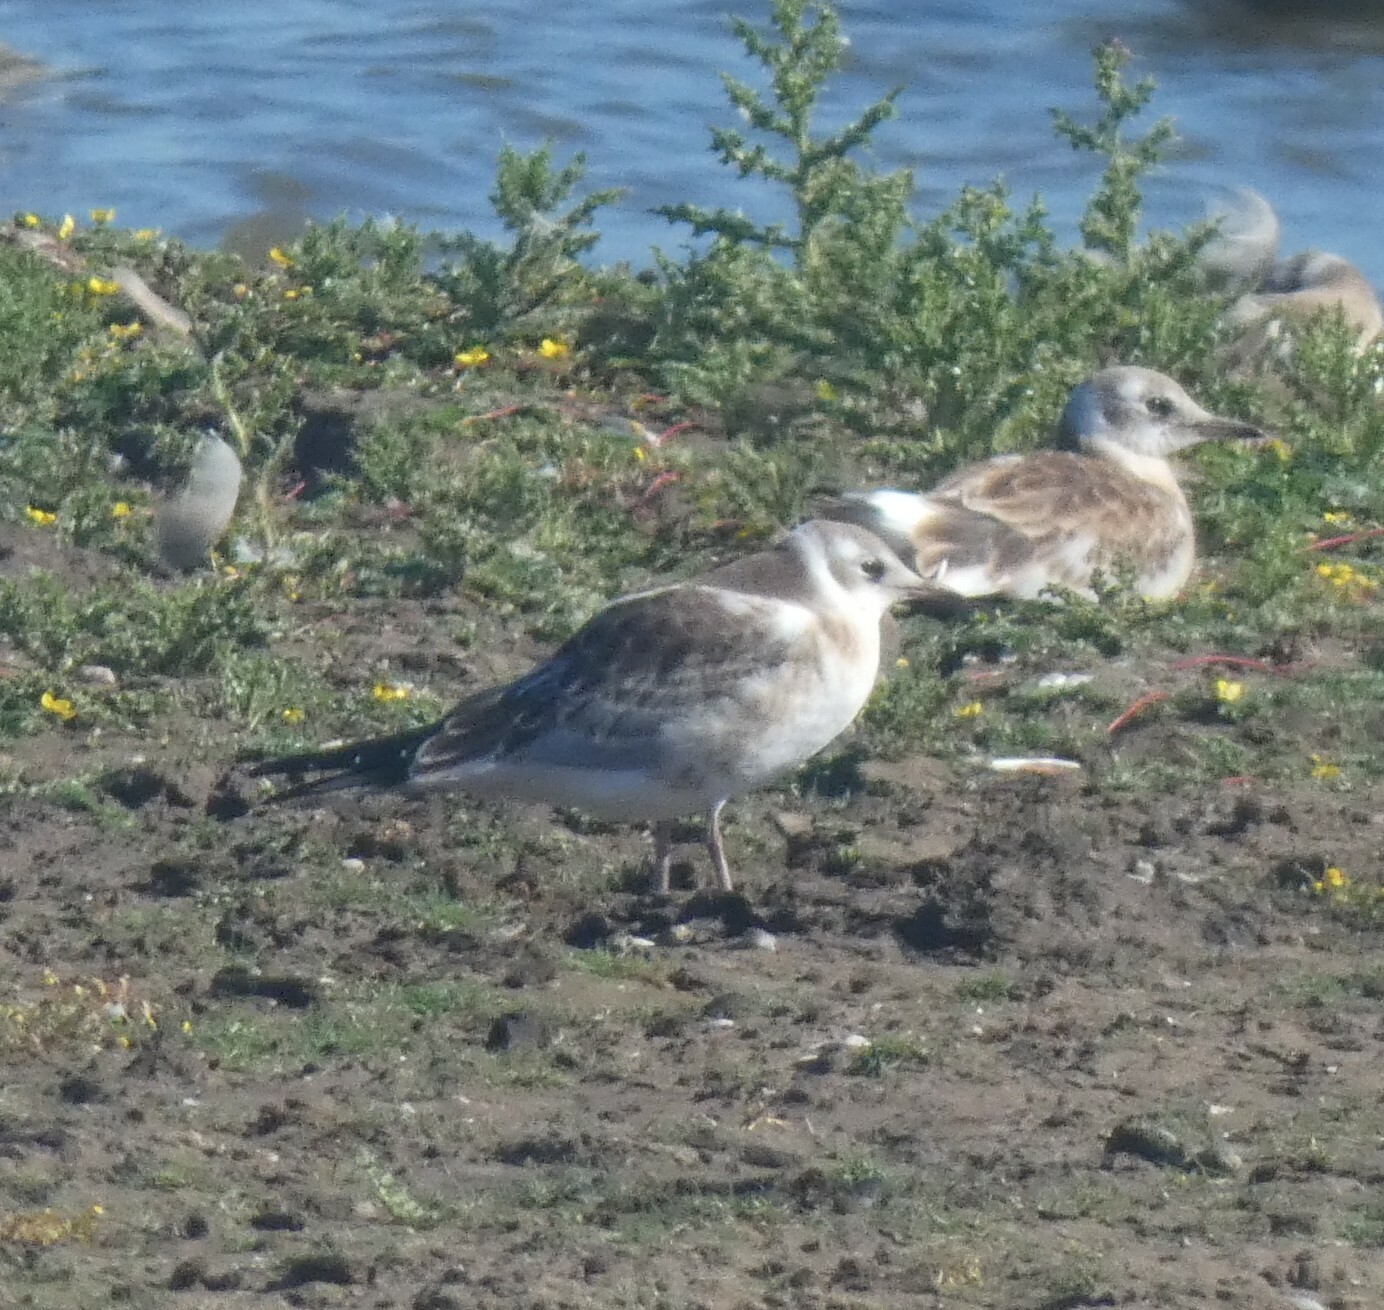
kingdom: Animalia
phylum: Chordata
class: Aves
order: Charadriiformes
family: Laridae
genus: Chroicocephalus
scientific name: Chroicocephalus ridibundus
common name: Black-headed gull
